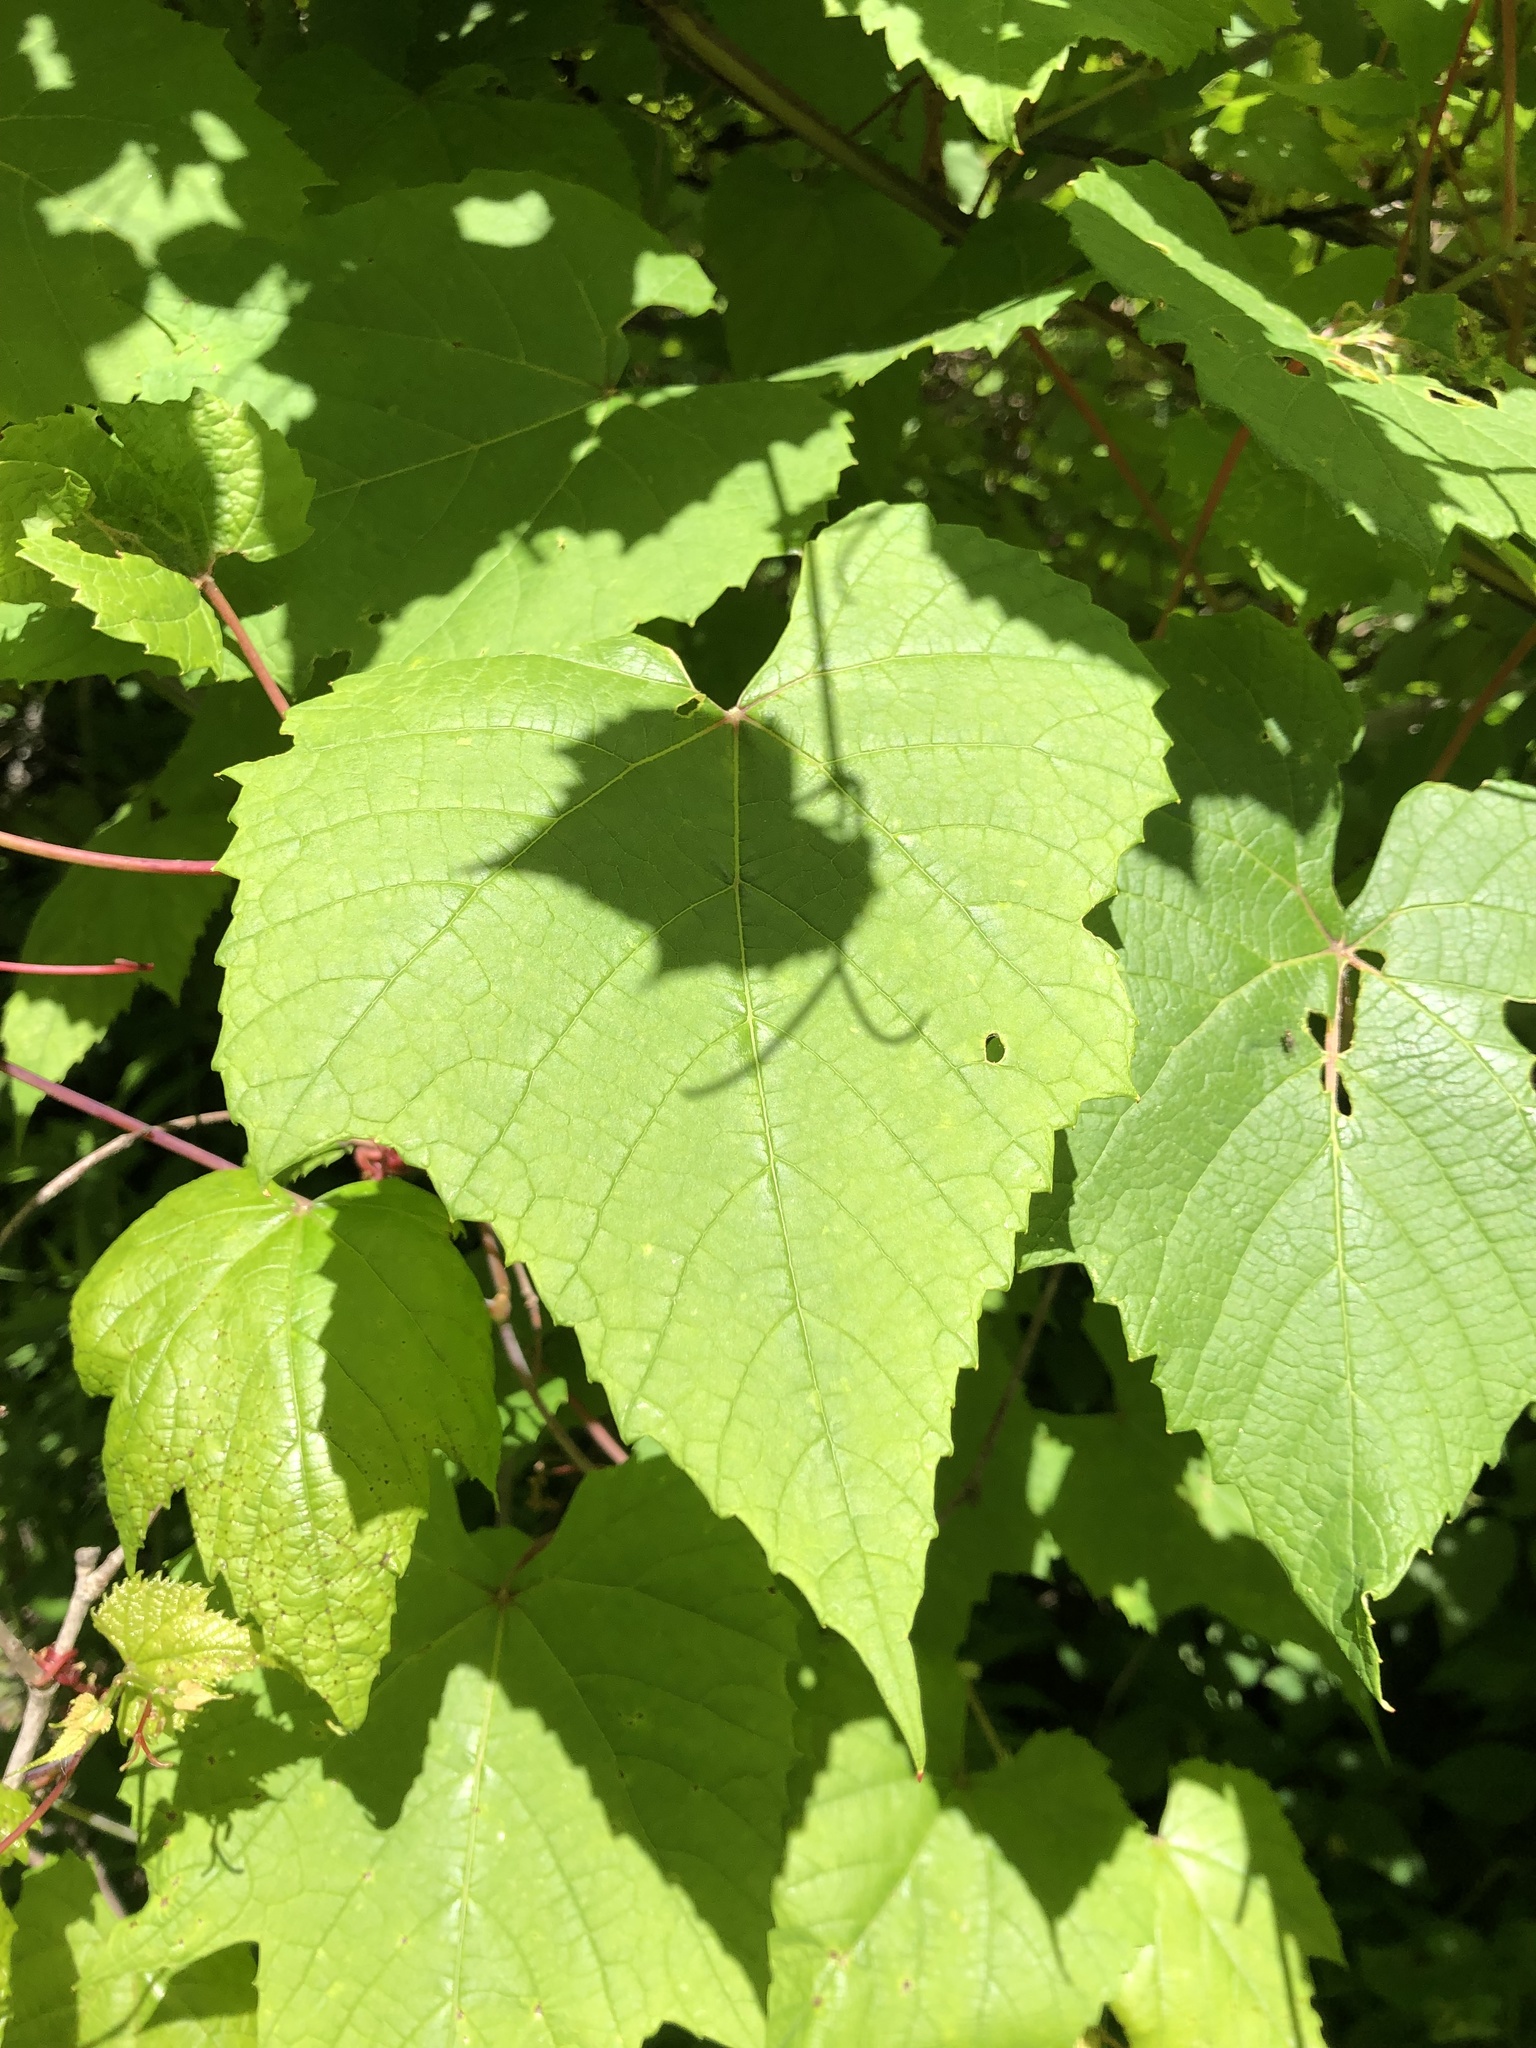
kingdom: Plantae
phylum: Tracheophyta
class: Magnoliopsida
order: Vitales
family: Vitaceae
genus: Vitis
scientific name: Vitis aestivalis
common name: Pigeon grape
